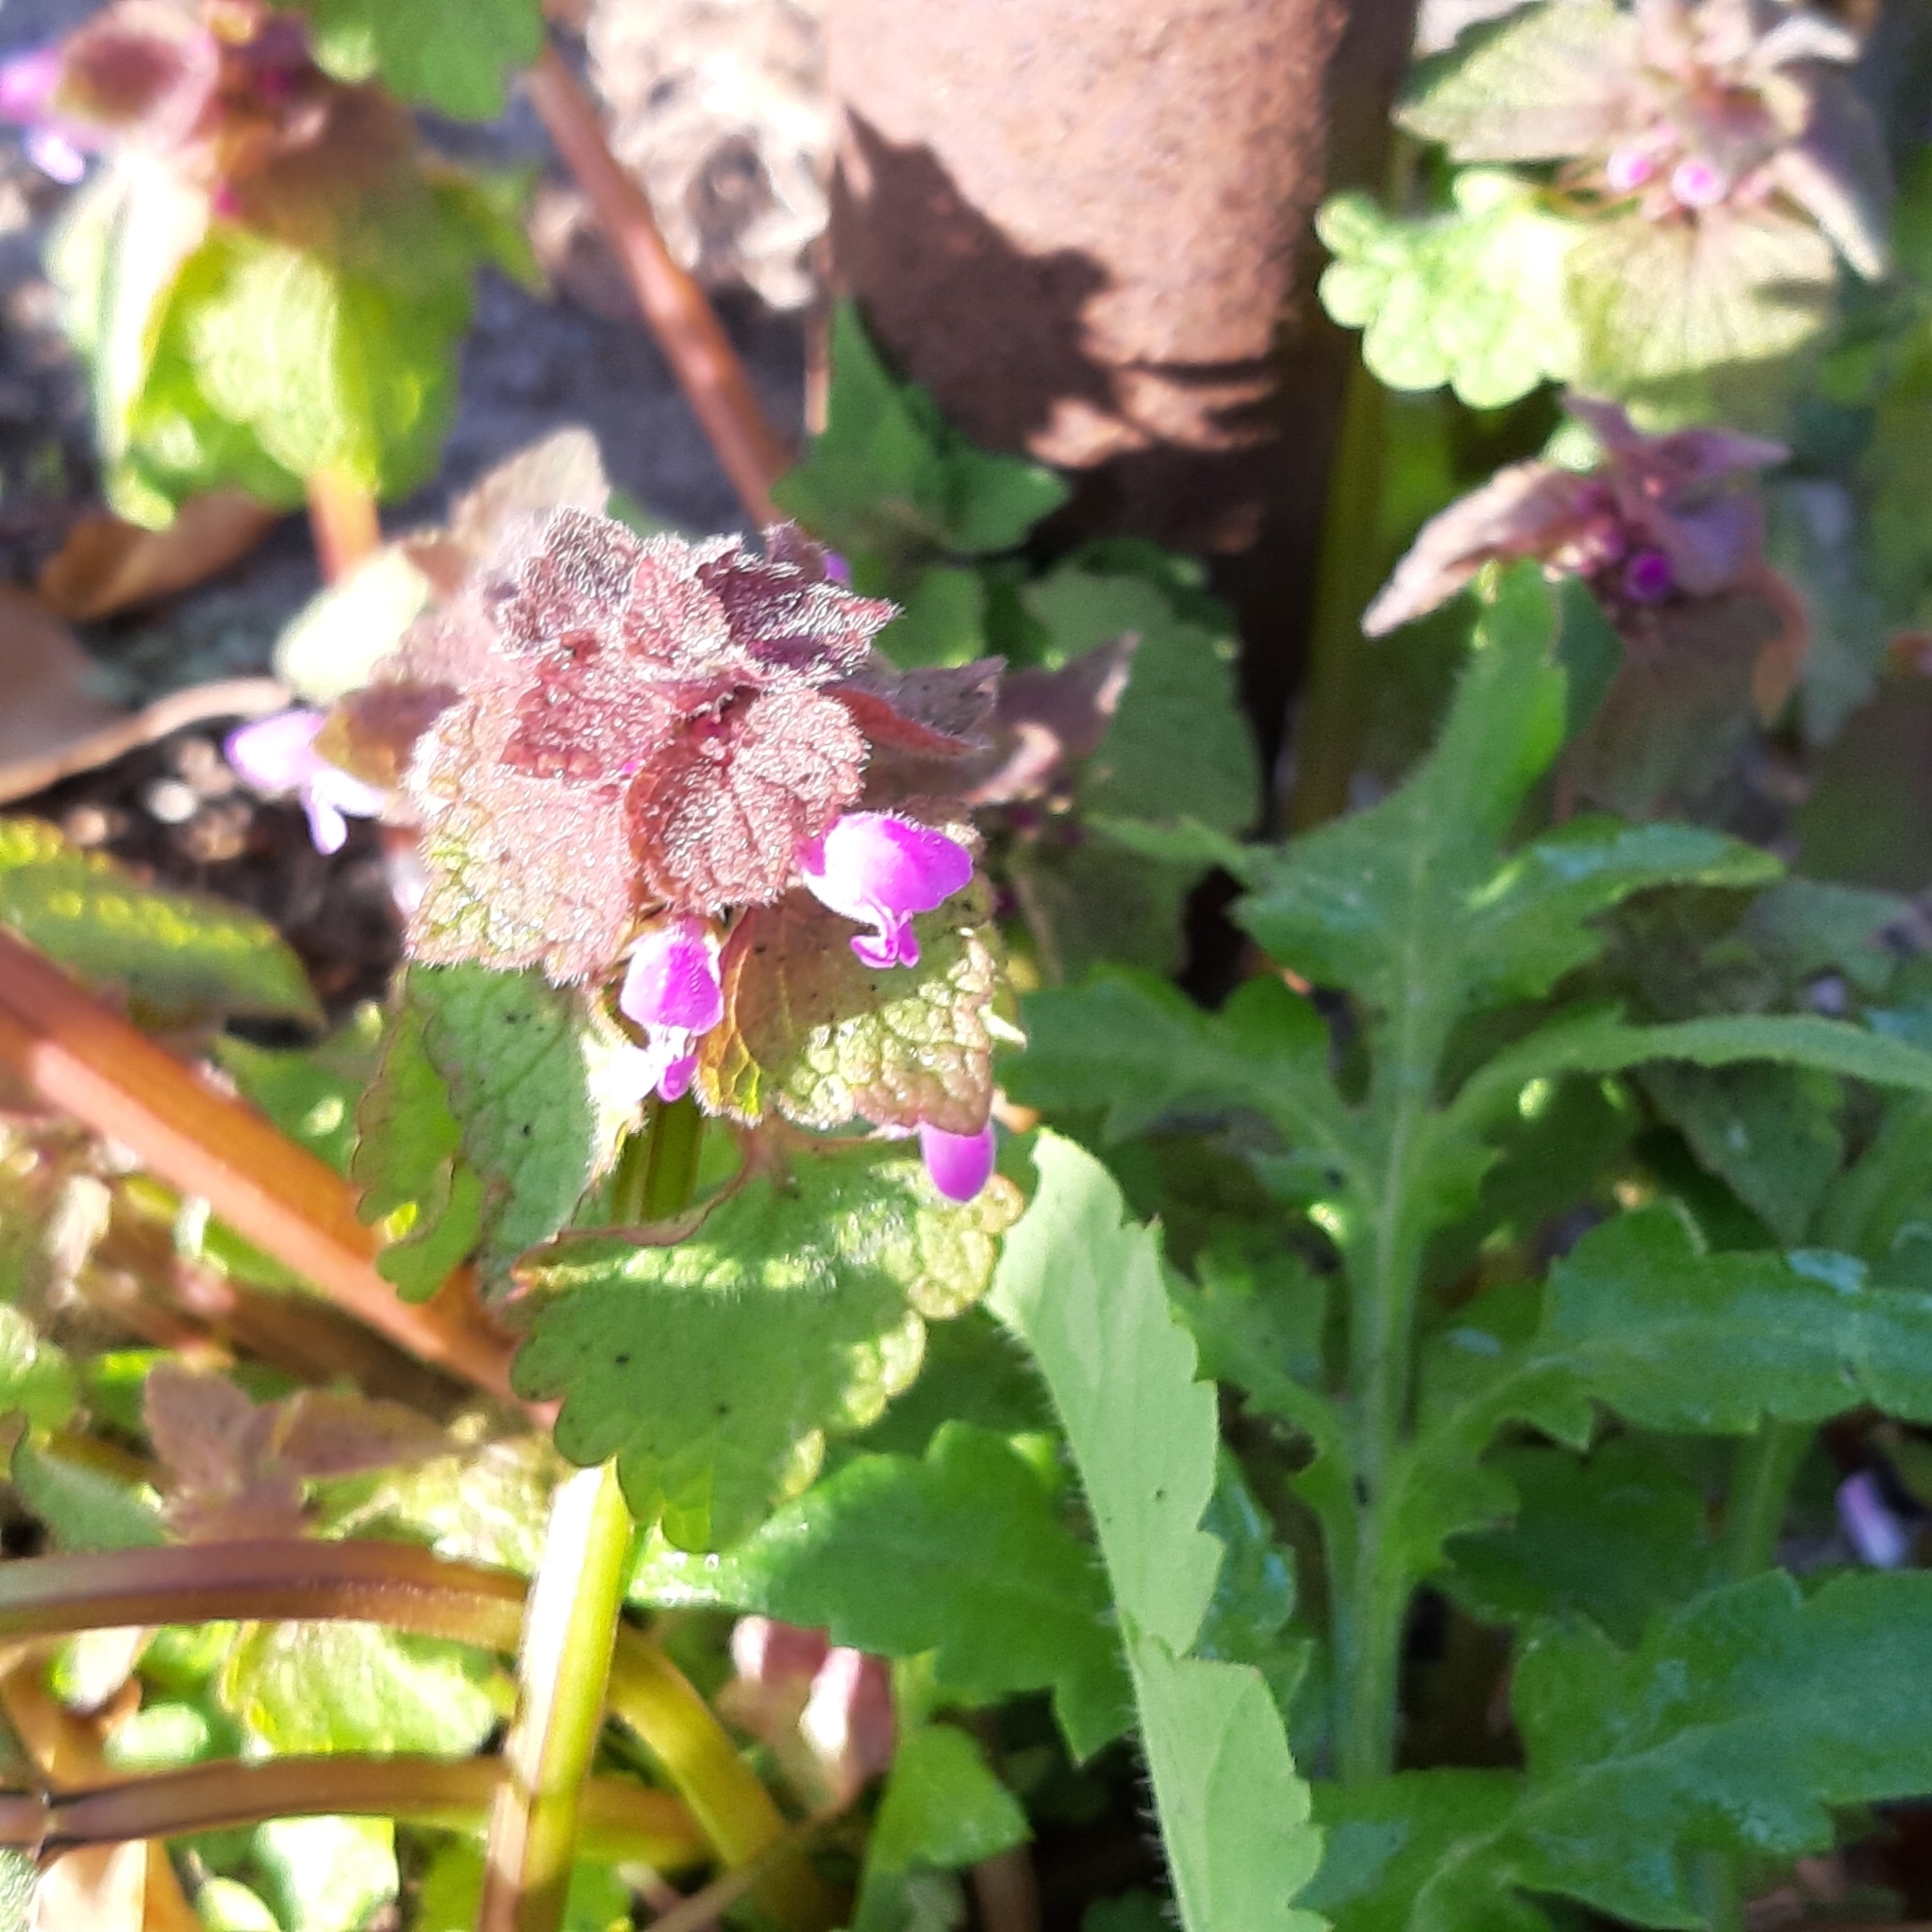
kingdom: Plantae
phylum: Tracheophyta
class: Magnoliopsida
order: Lamiales
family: Lamiaceae
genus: Lamium
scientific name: Lamium purpureum
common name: Red dead-nettle
